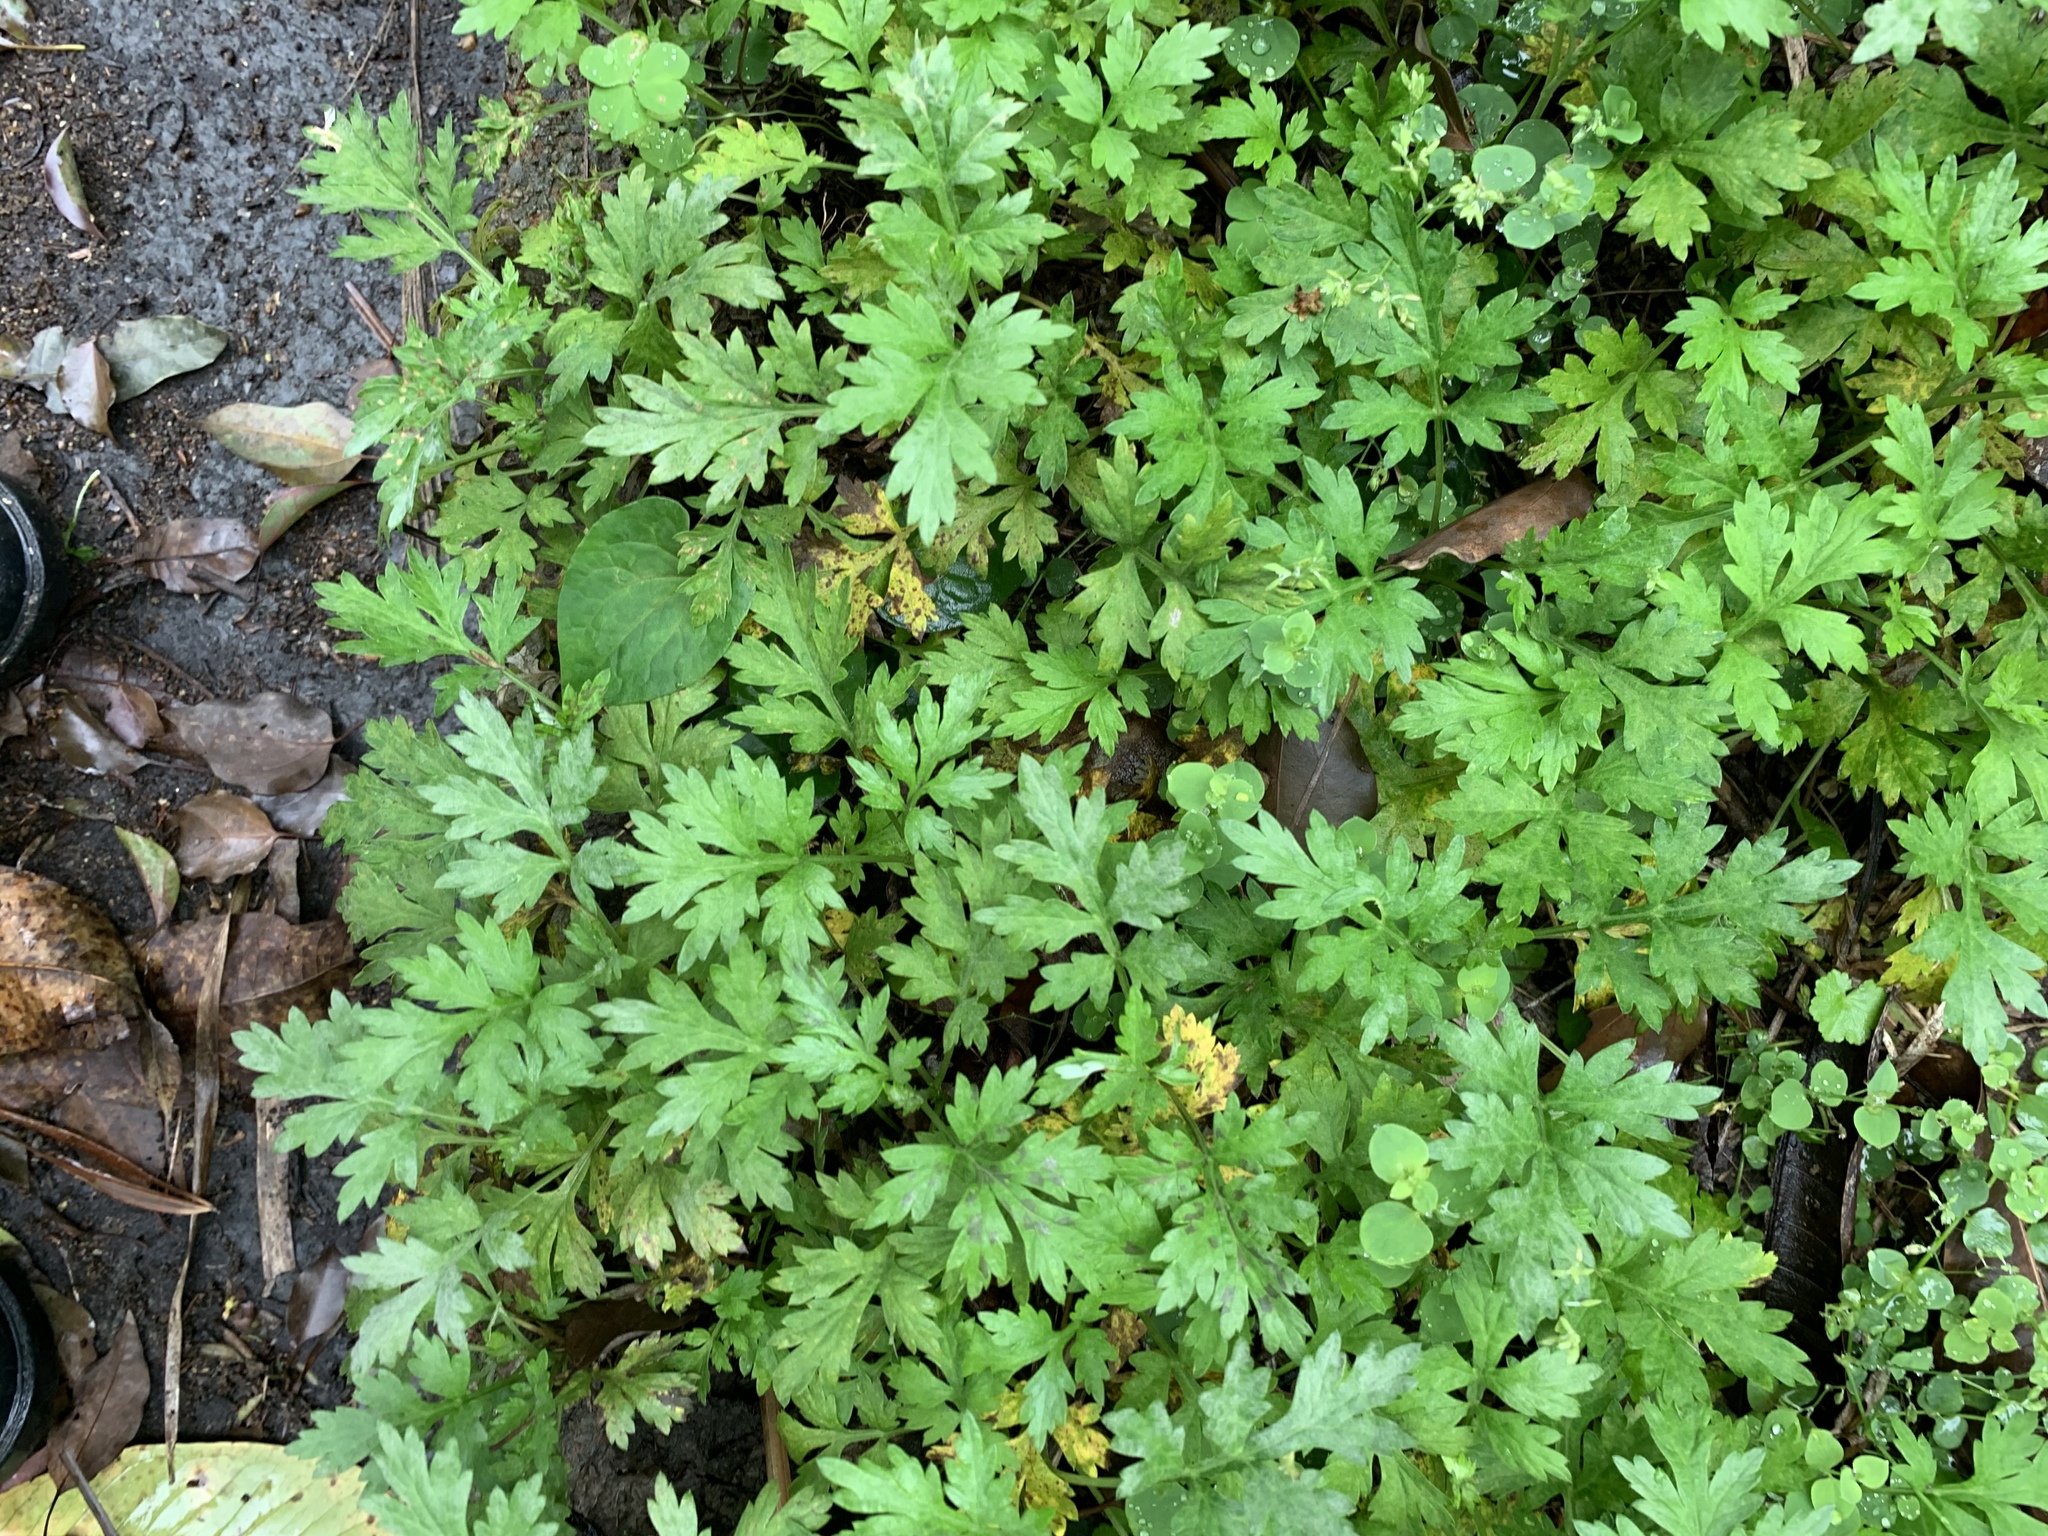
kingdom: Plantae
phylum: Tracheophyta
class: Magnoliopsida
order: Asterales
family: Asteraceae
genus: Artemisia
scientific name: Artemisia indica
